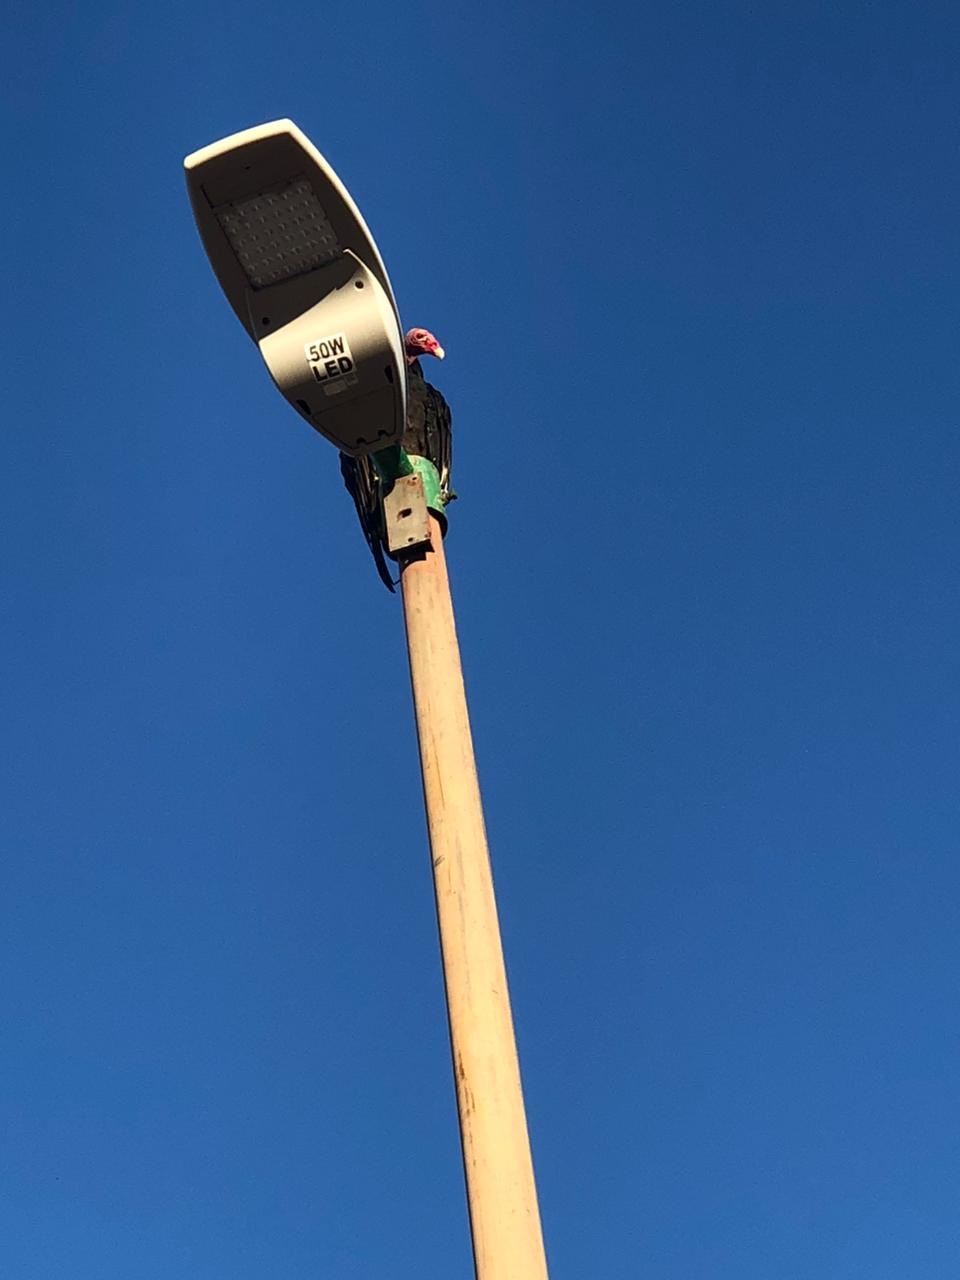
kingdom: Animalia
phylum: Chordata
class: Aves
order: Accipitriformes
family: Cathartidae
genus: Cathartes
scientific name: Cathartes aura
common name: Turkey vulture
